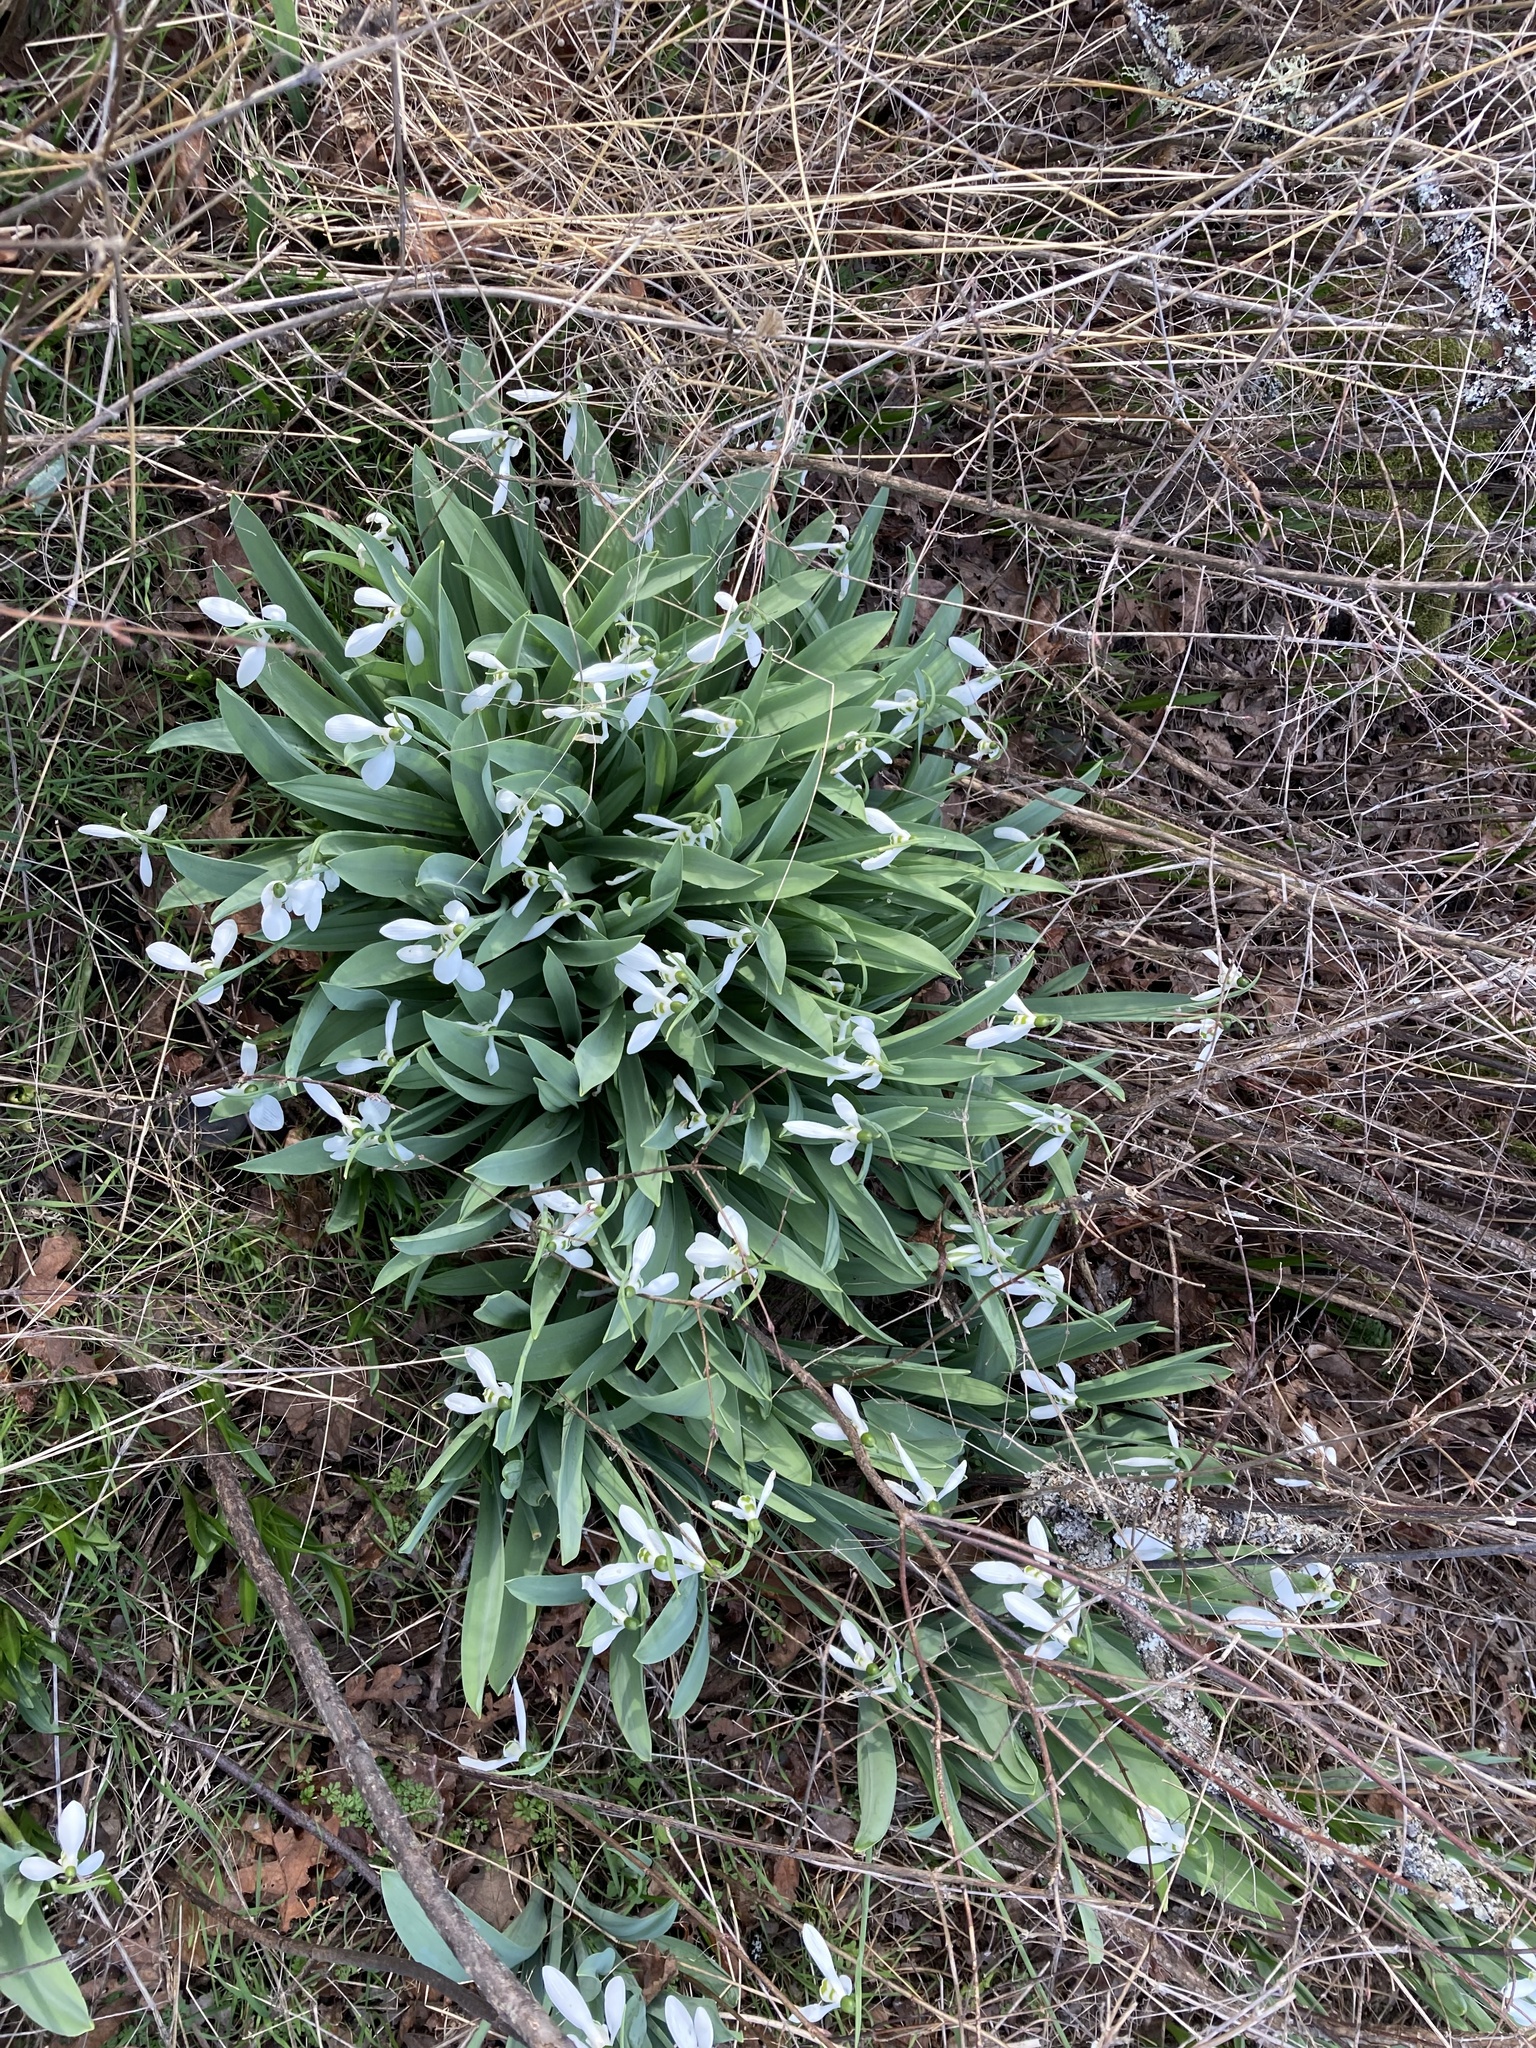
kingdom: Plantae
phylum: Tracheophyta
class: Liliopsida
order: Asparagales
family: Amaryllidaceae
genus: Galanthus
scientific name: Galanthus elwesii
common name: Greater snowdrop
